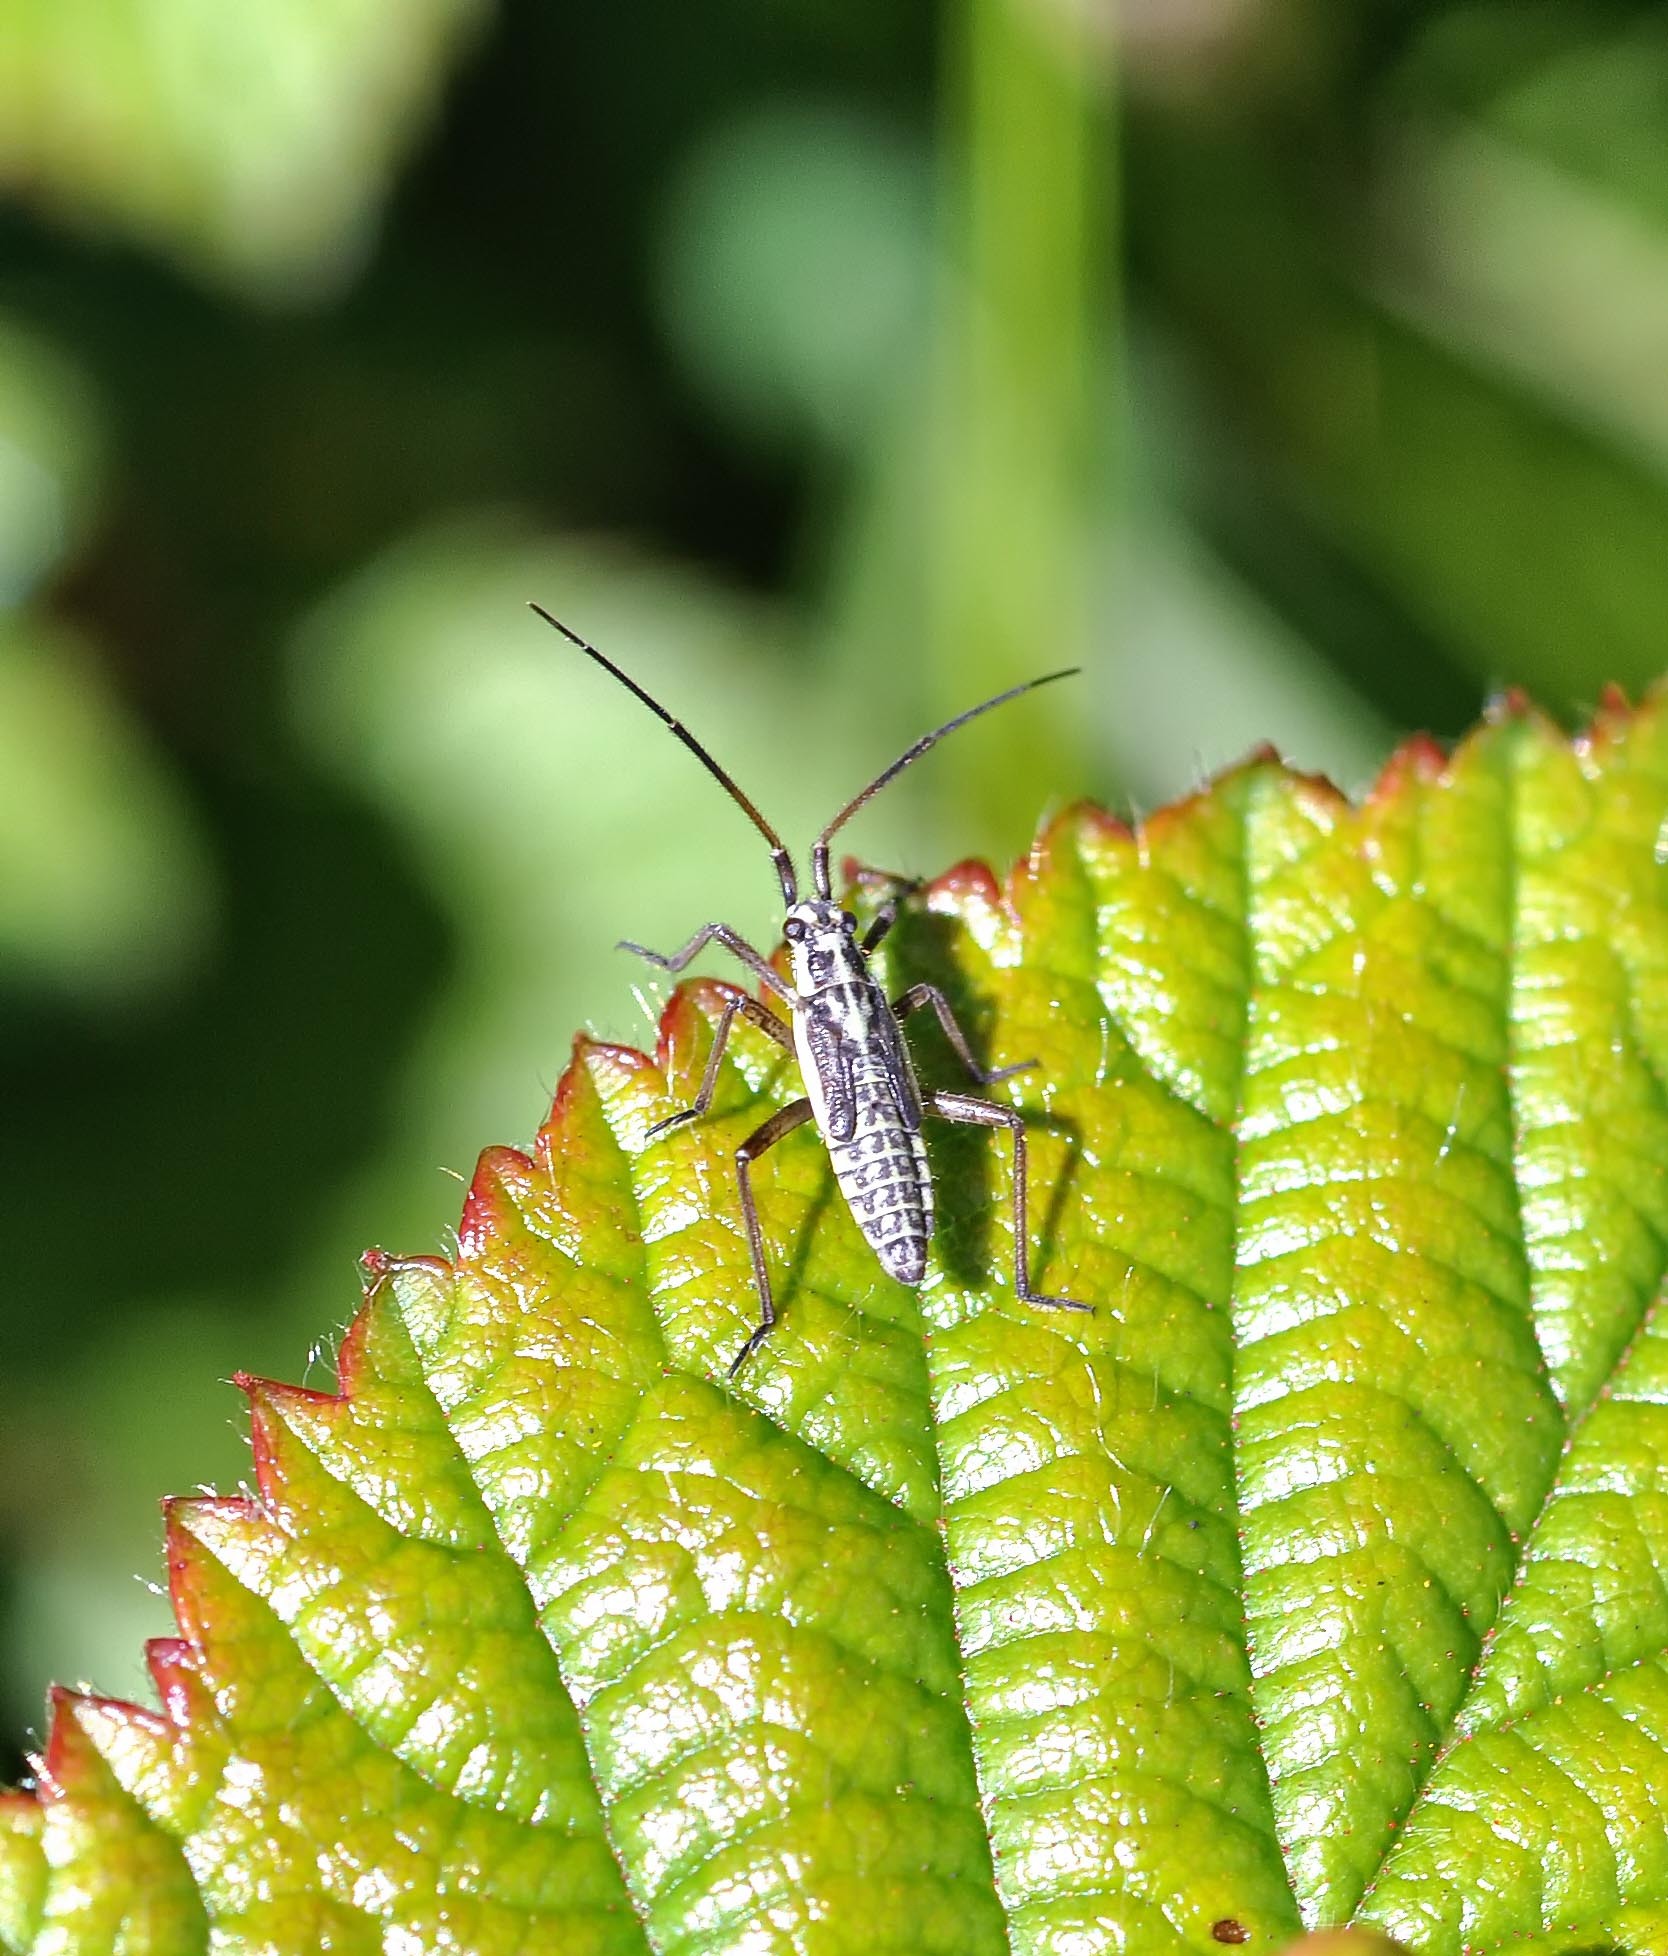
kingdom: Animalia
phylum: Arthropoda
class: Insecta
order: Hemiptera
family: Miridae
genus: Leptopterna
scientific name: Leptopterna dolabrata
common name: Meadow plant bug
